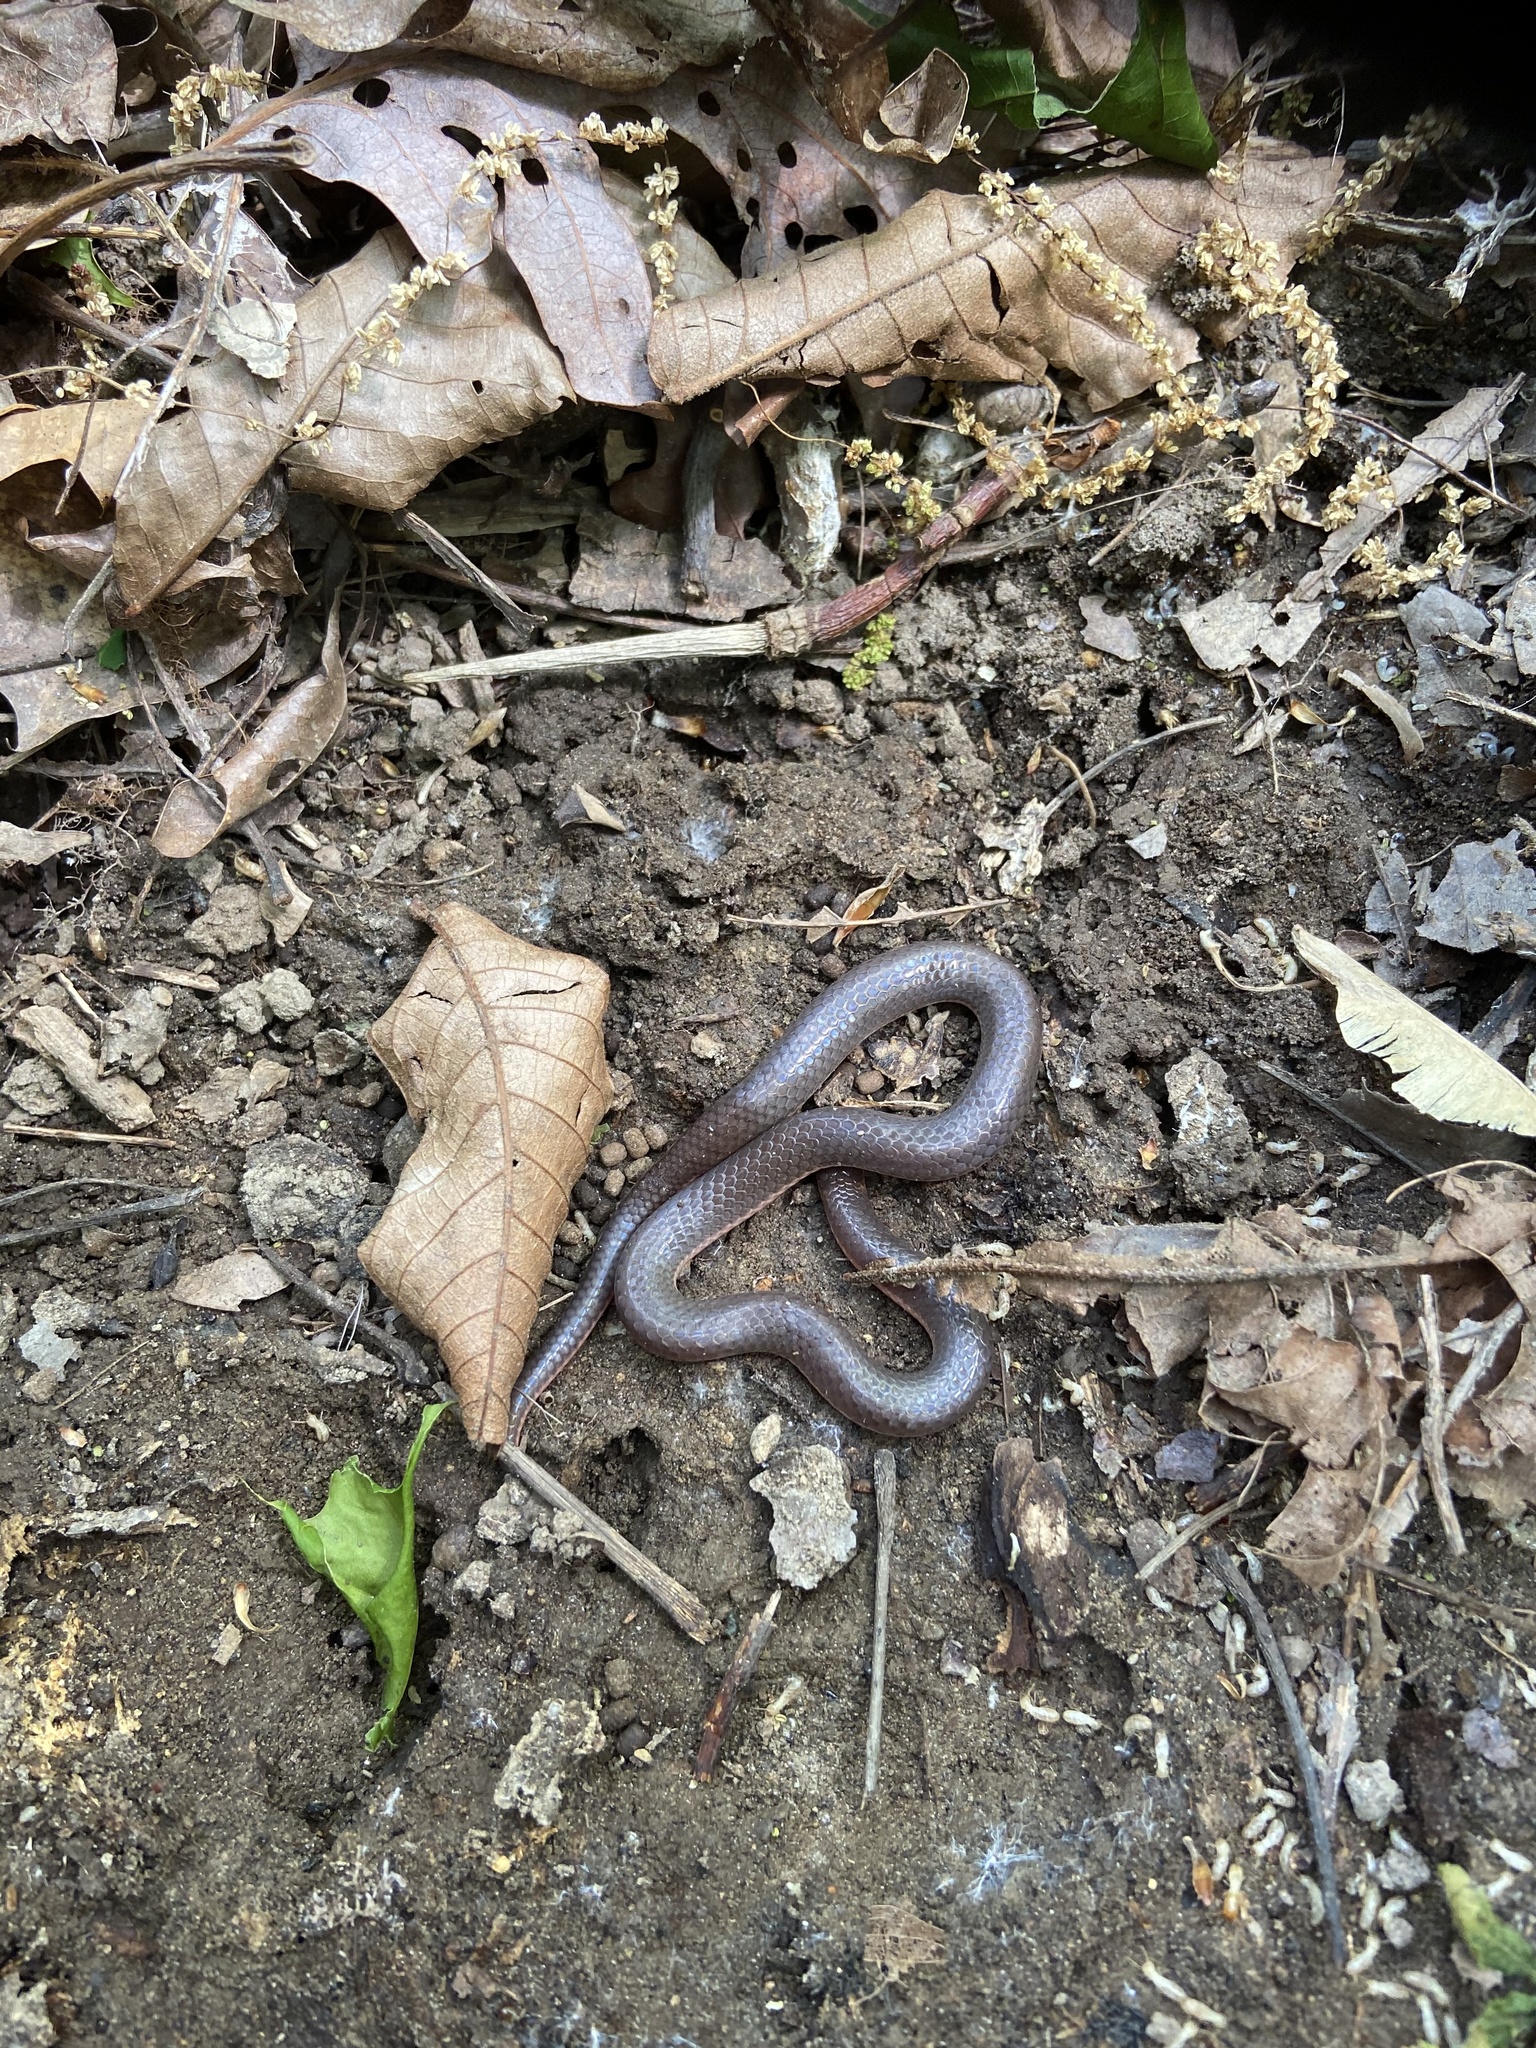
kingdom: Animalia
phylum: Chordata
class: Squamata
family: Colubridae
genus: Carphophis
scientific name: Carphophis amoenus
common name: Eastern worm snake
